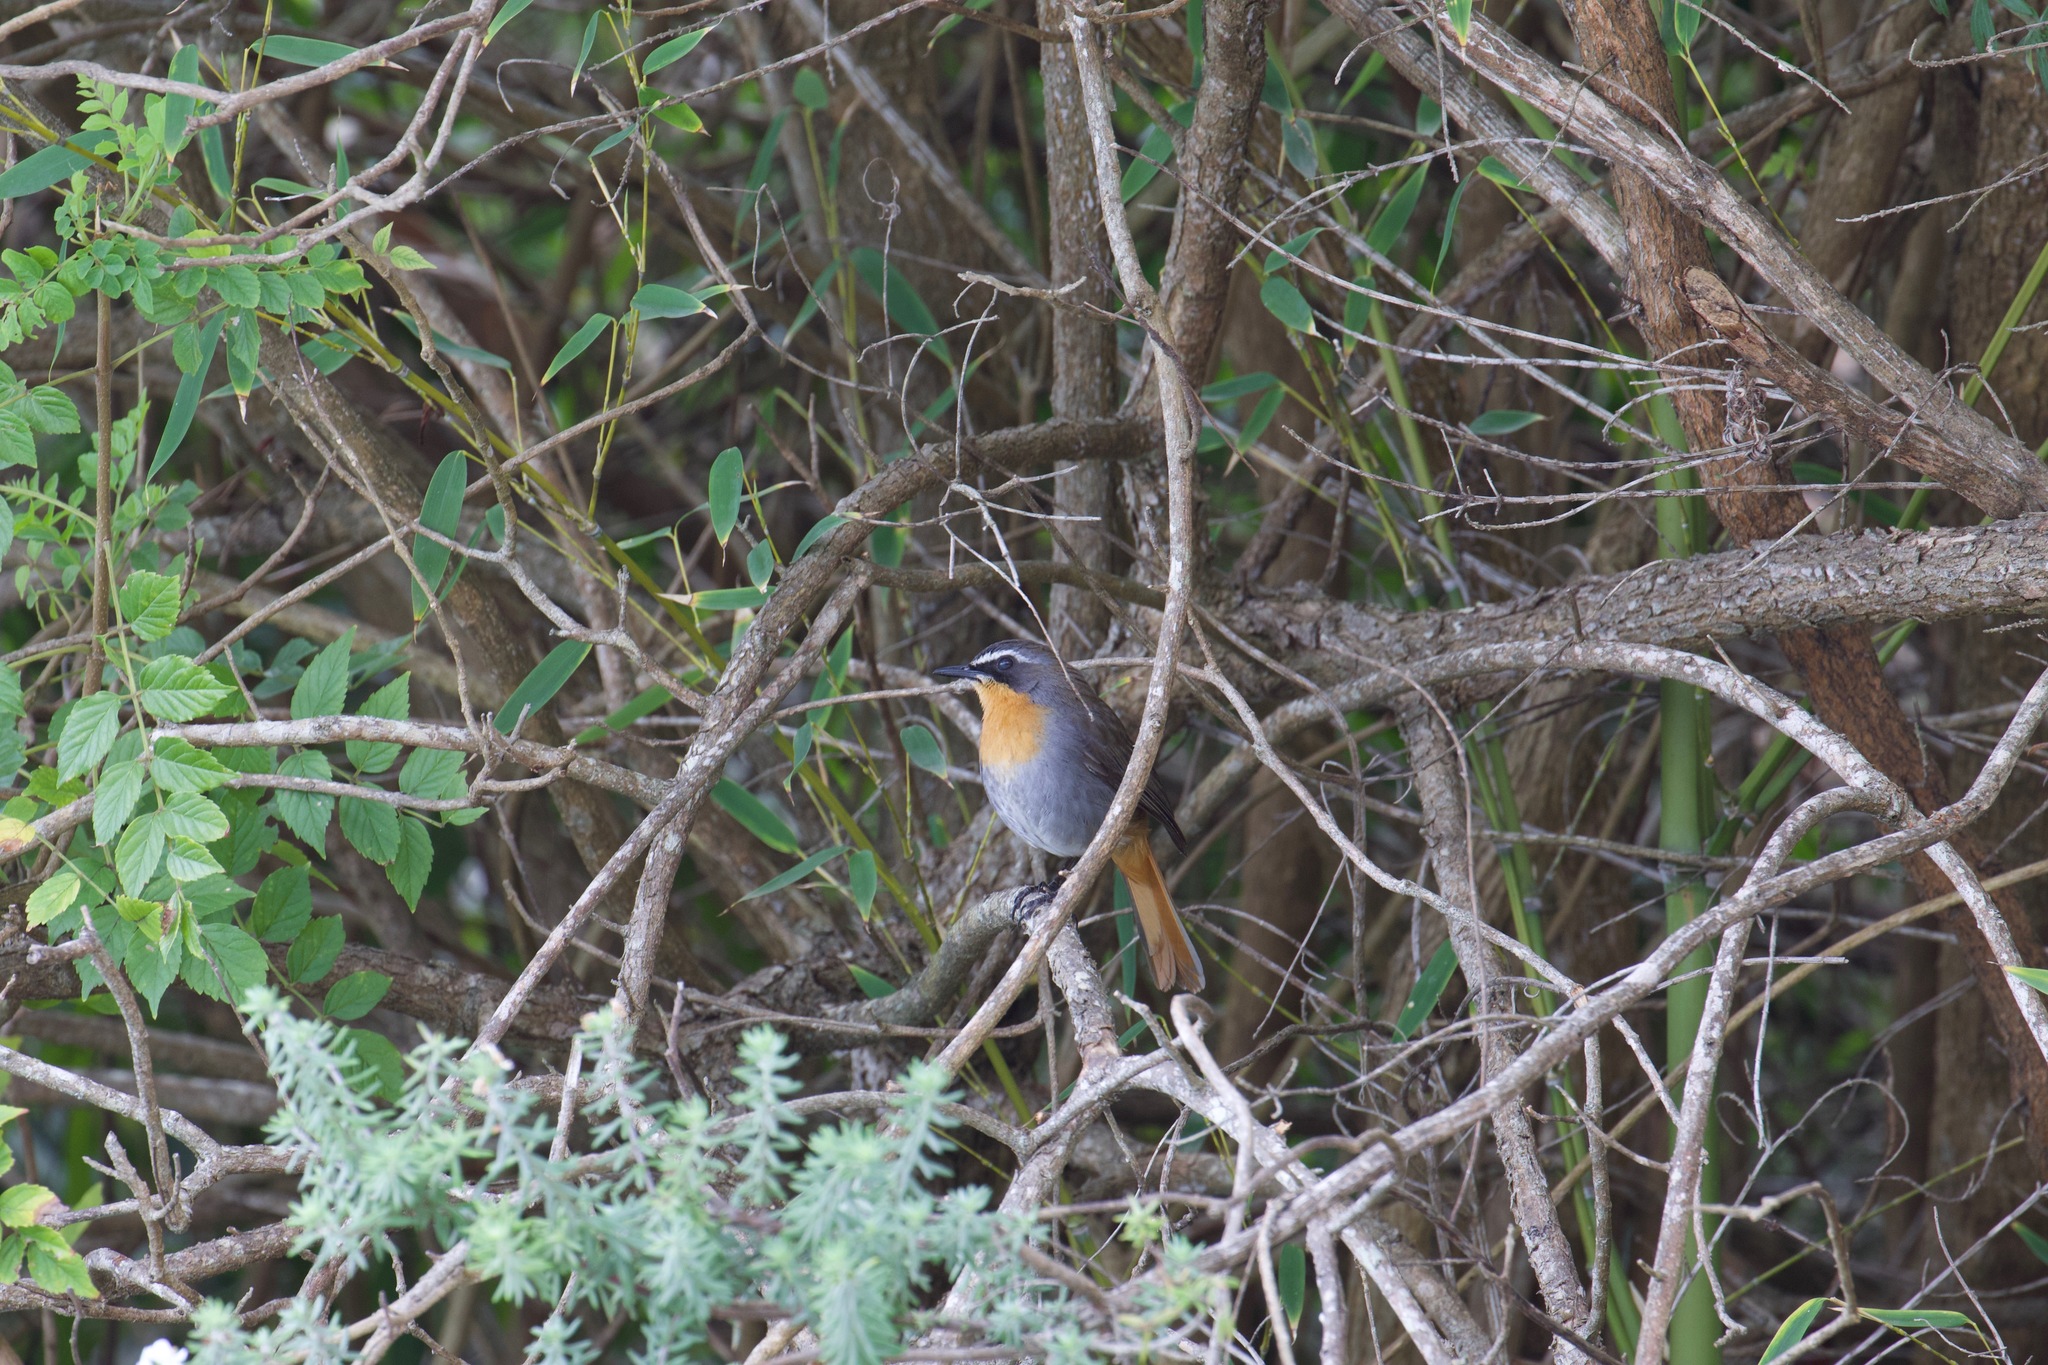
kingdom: Animalia
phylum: Chordata
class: Aves
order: Passeriformes
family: Muscicapidae
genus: Cossypha
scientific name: Cossypha caffra
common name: Cape robin-chat
